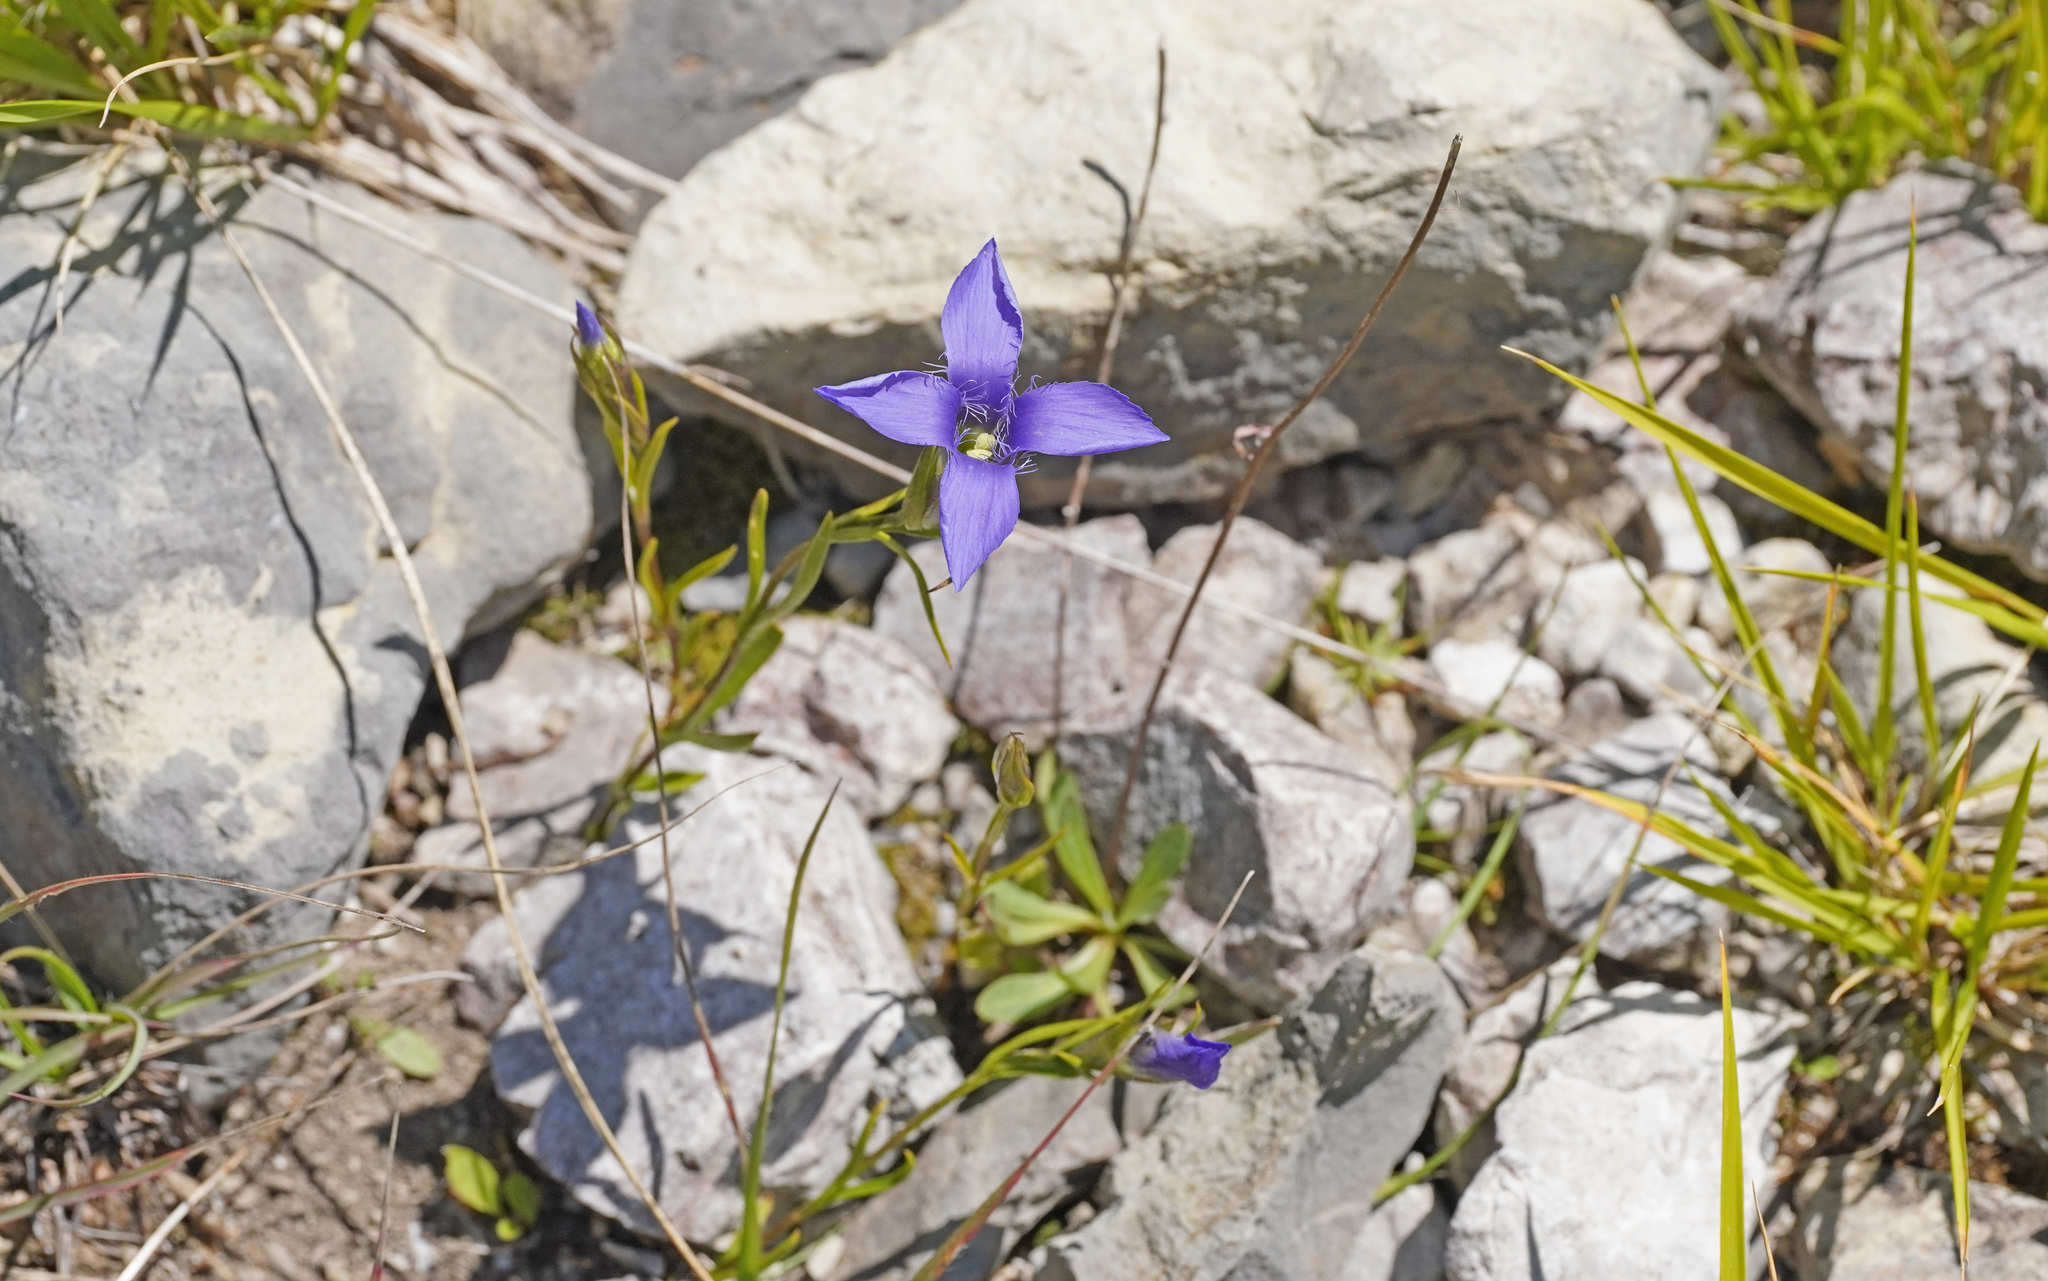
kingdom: Plantae
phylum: Tracheophyta
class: Magnoliopsida
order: Gentianales
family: Gentianaceae
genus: Gentianopsis
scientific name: Gentianopsis ciliata
